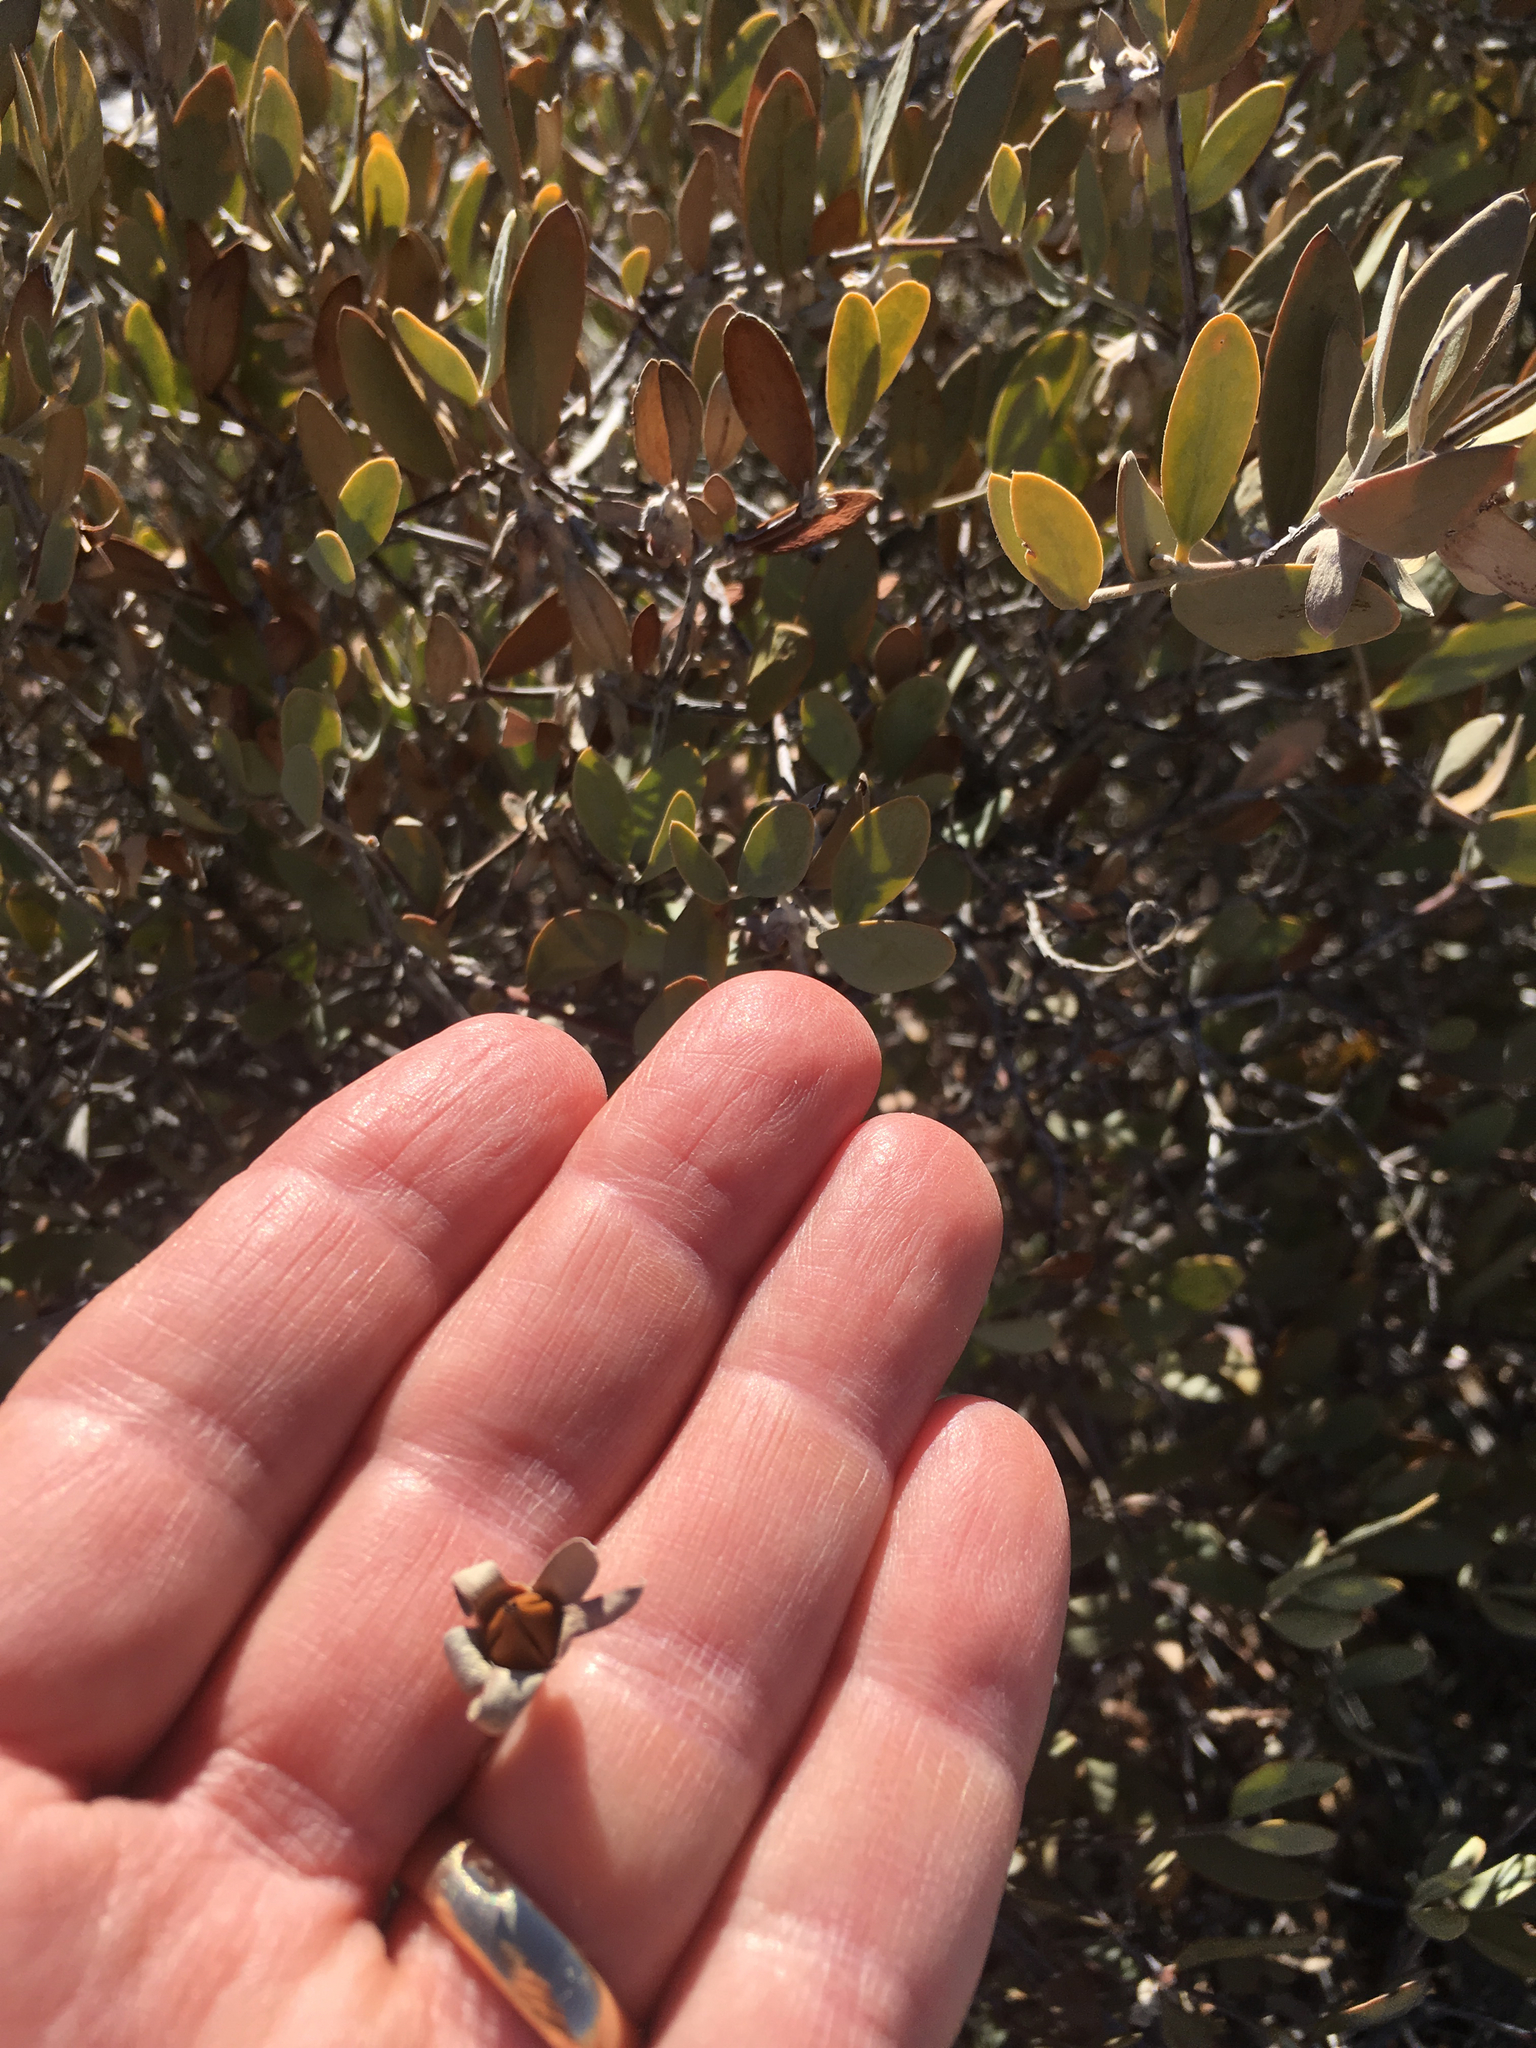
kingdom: Plantae
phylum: Tracheophyta
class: Magnoliopsida
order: Caryophyllales
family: Simmondsiaceae
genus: Simmondsia
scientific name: Simmondsia chinensis
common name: Jojoba
